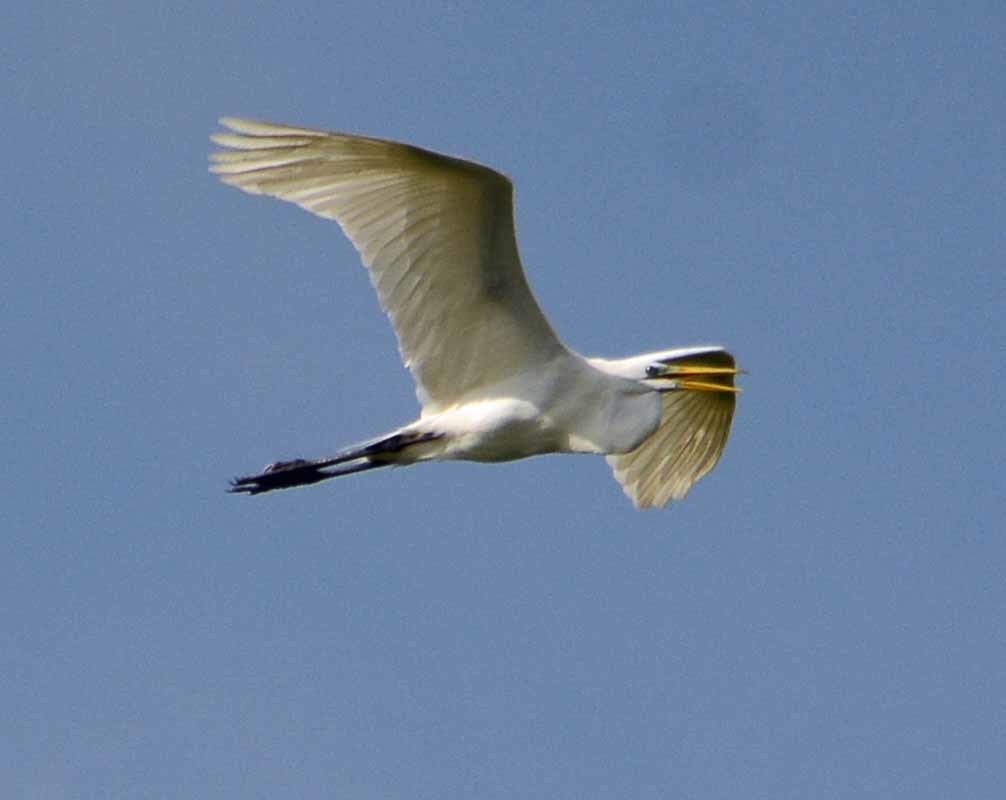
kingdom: Animalia
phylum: Chordata
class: Aves
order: Pelecaniformes
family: Ardeidae
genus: Ardea
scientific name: Ardea alba
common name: Great egret
